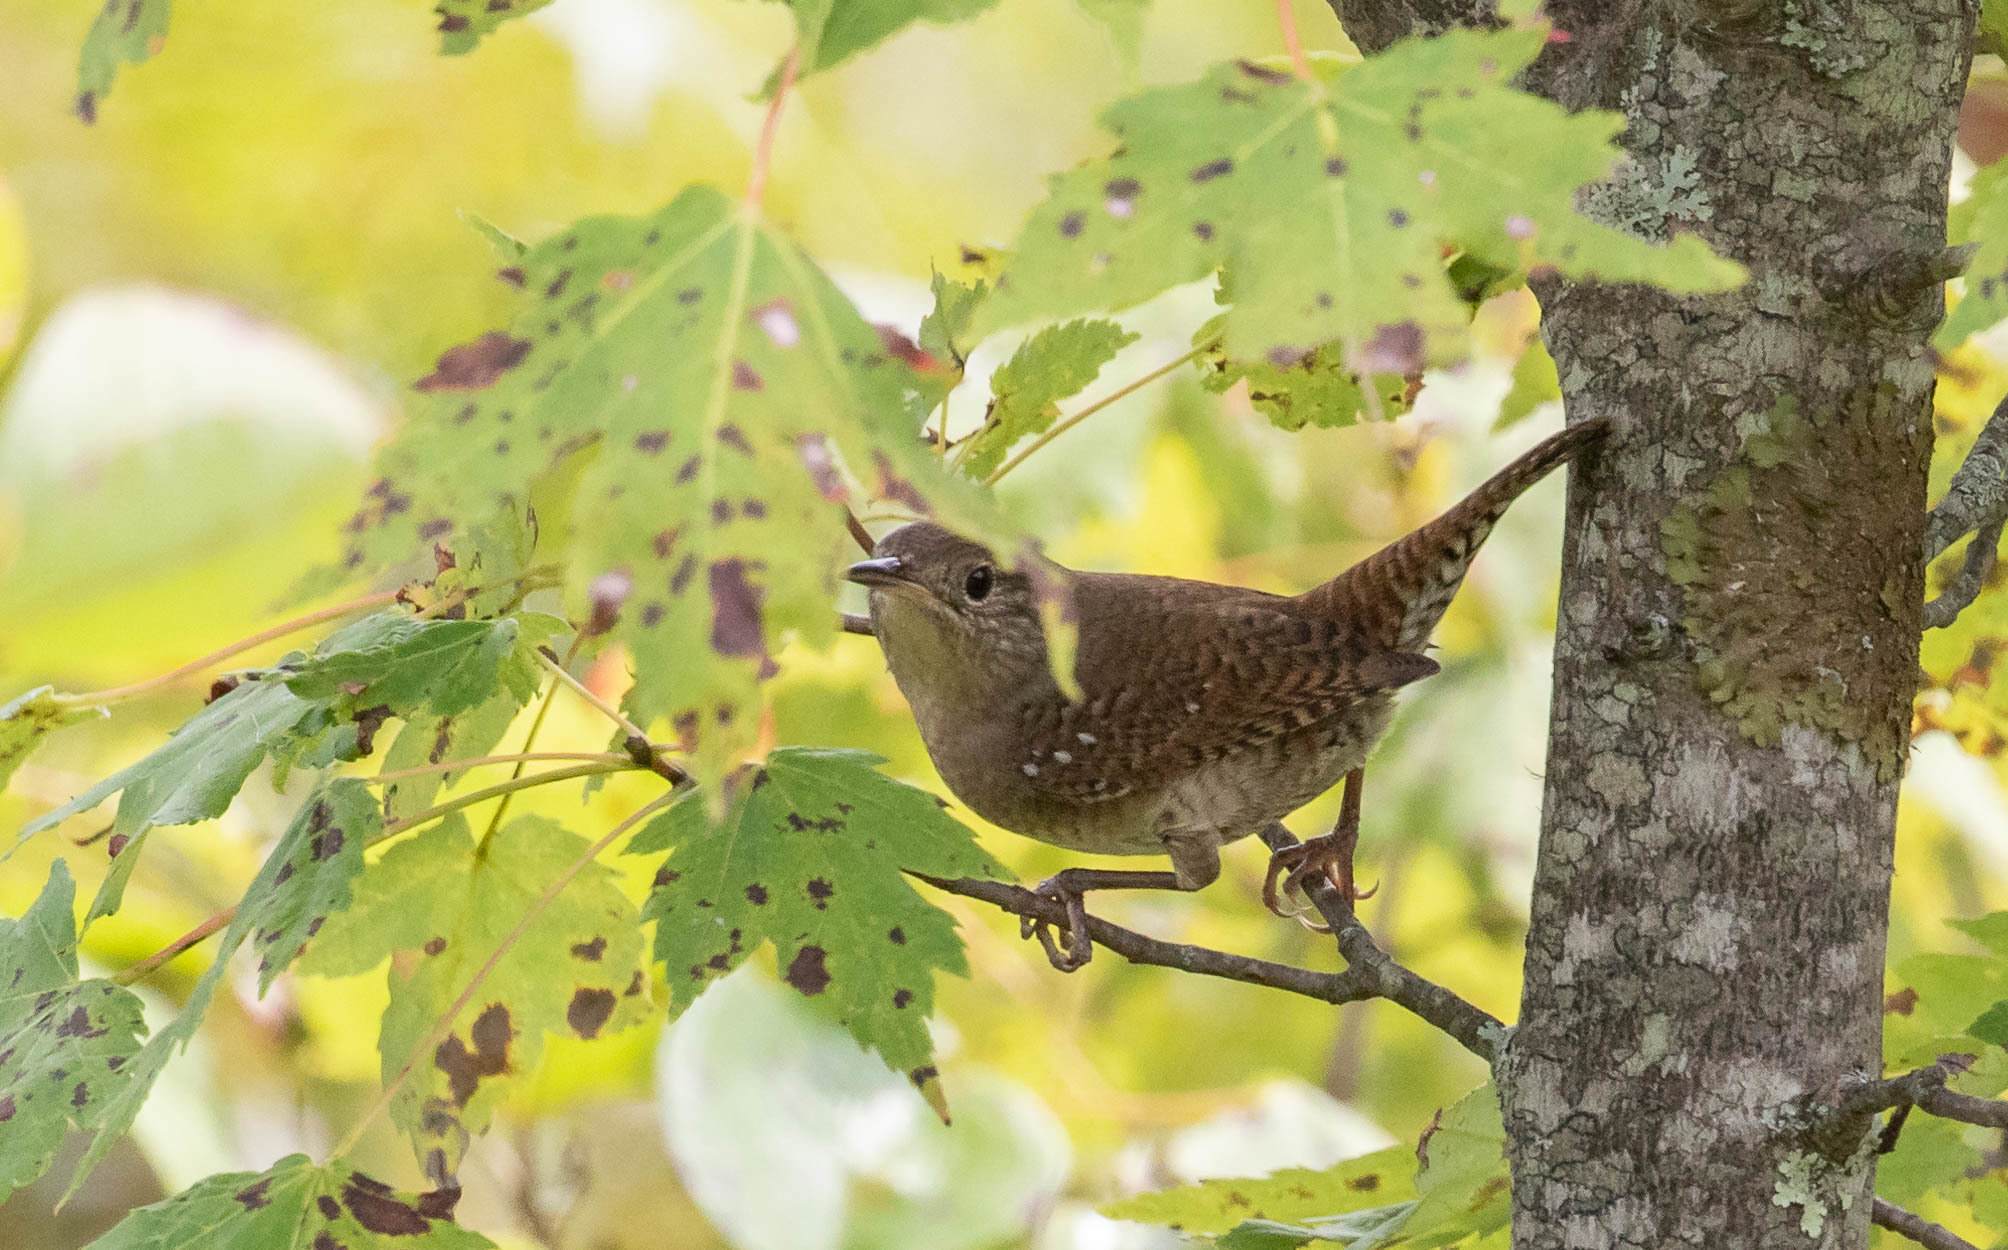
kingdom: Animalia
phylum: Chordata
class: Aves
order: Passeriformes
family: Troglodytidae
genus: Troglodytes
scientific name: Troglodytes aedon
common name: House wren
